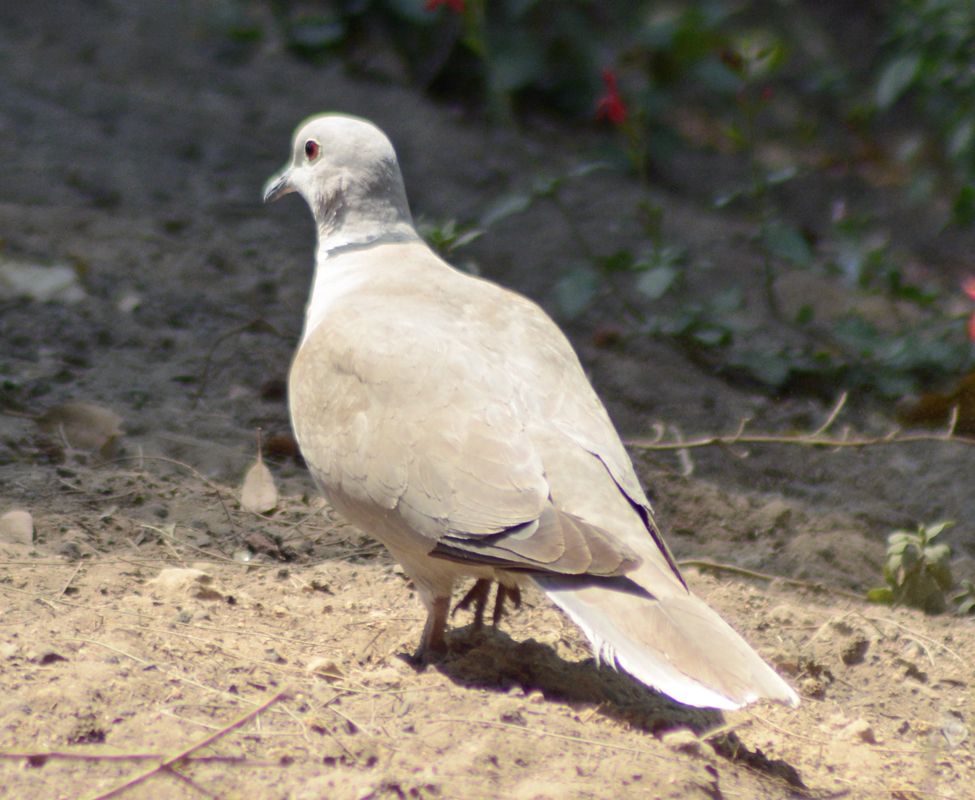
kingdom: Animalia
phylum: Chordata
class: Aves
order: Columbiformes
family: Columbidae
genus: Streptopelia
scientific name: Streptopelia decaocto
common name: Eurasian collared dove
